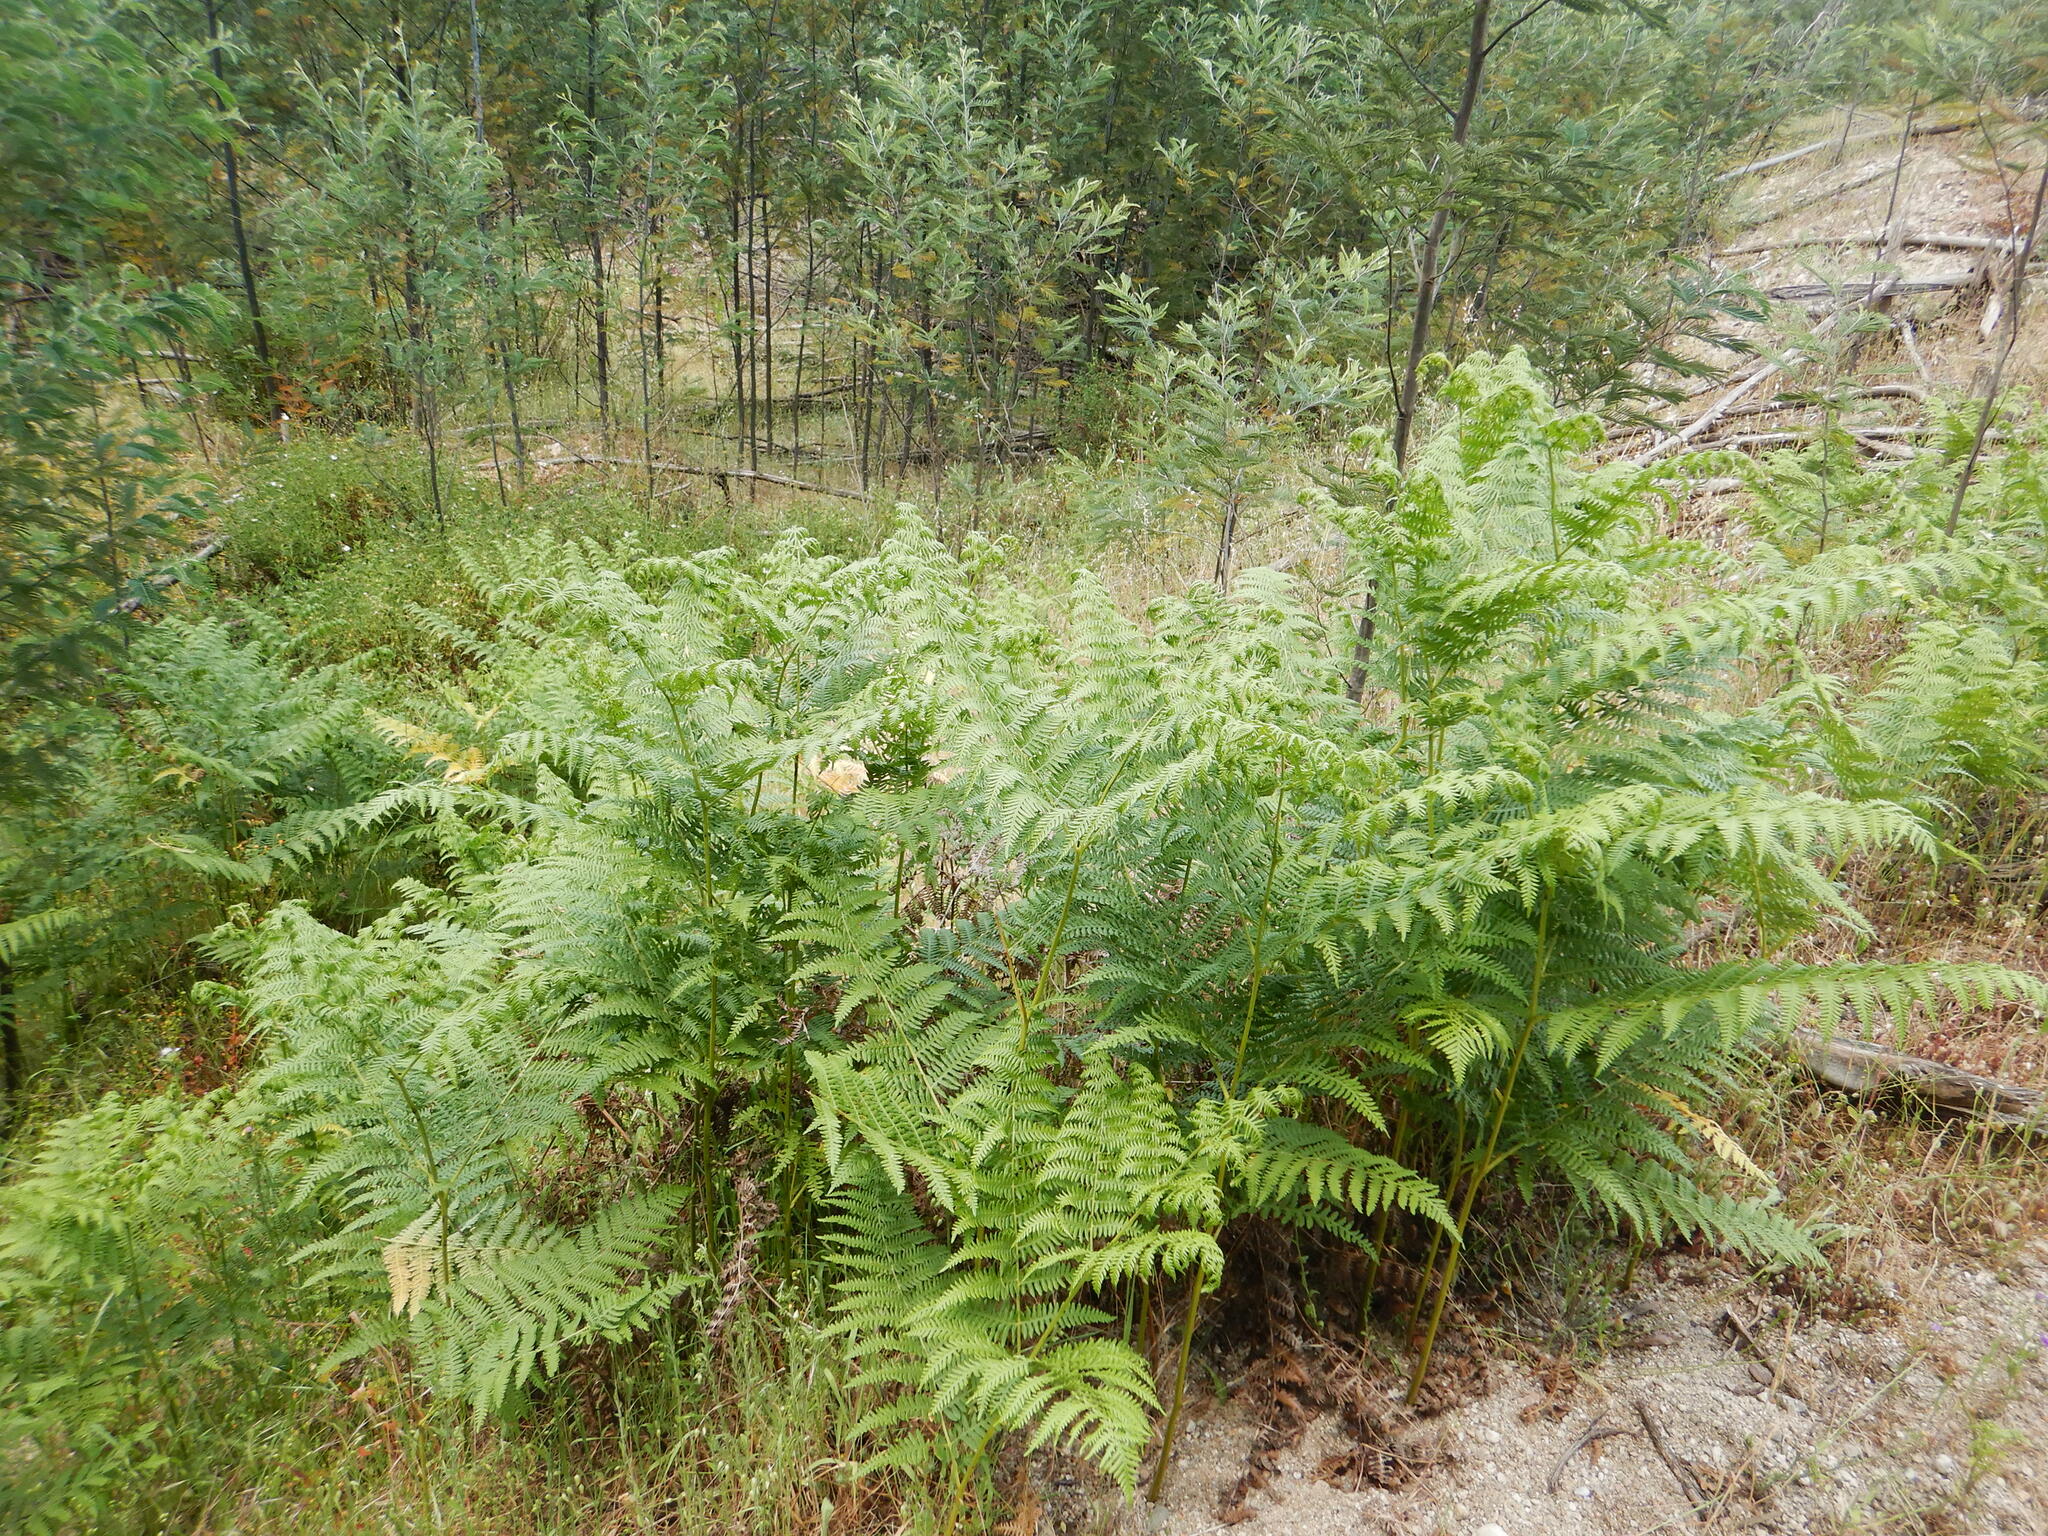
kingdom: Plantae
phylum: Tracheophyta
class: Polypodiopsida
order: Polypodiales
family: Dennstaedtiaceae
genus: Pteridium
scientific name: Pteridium aquilinum
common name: Bracken
